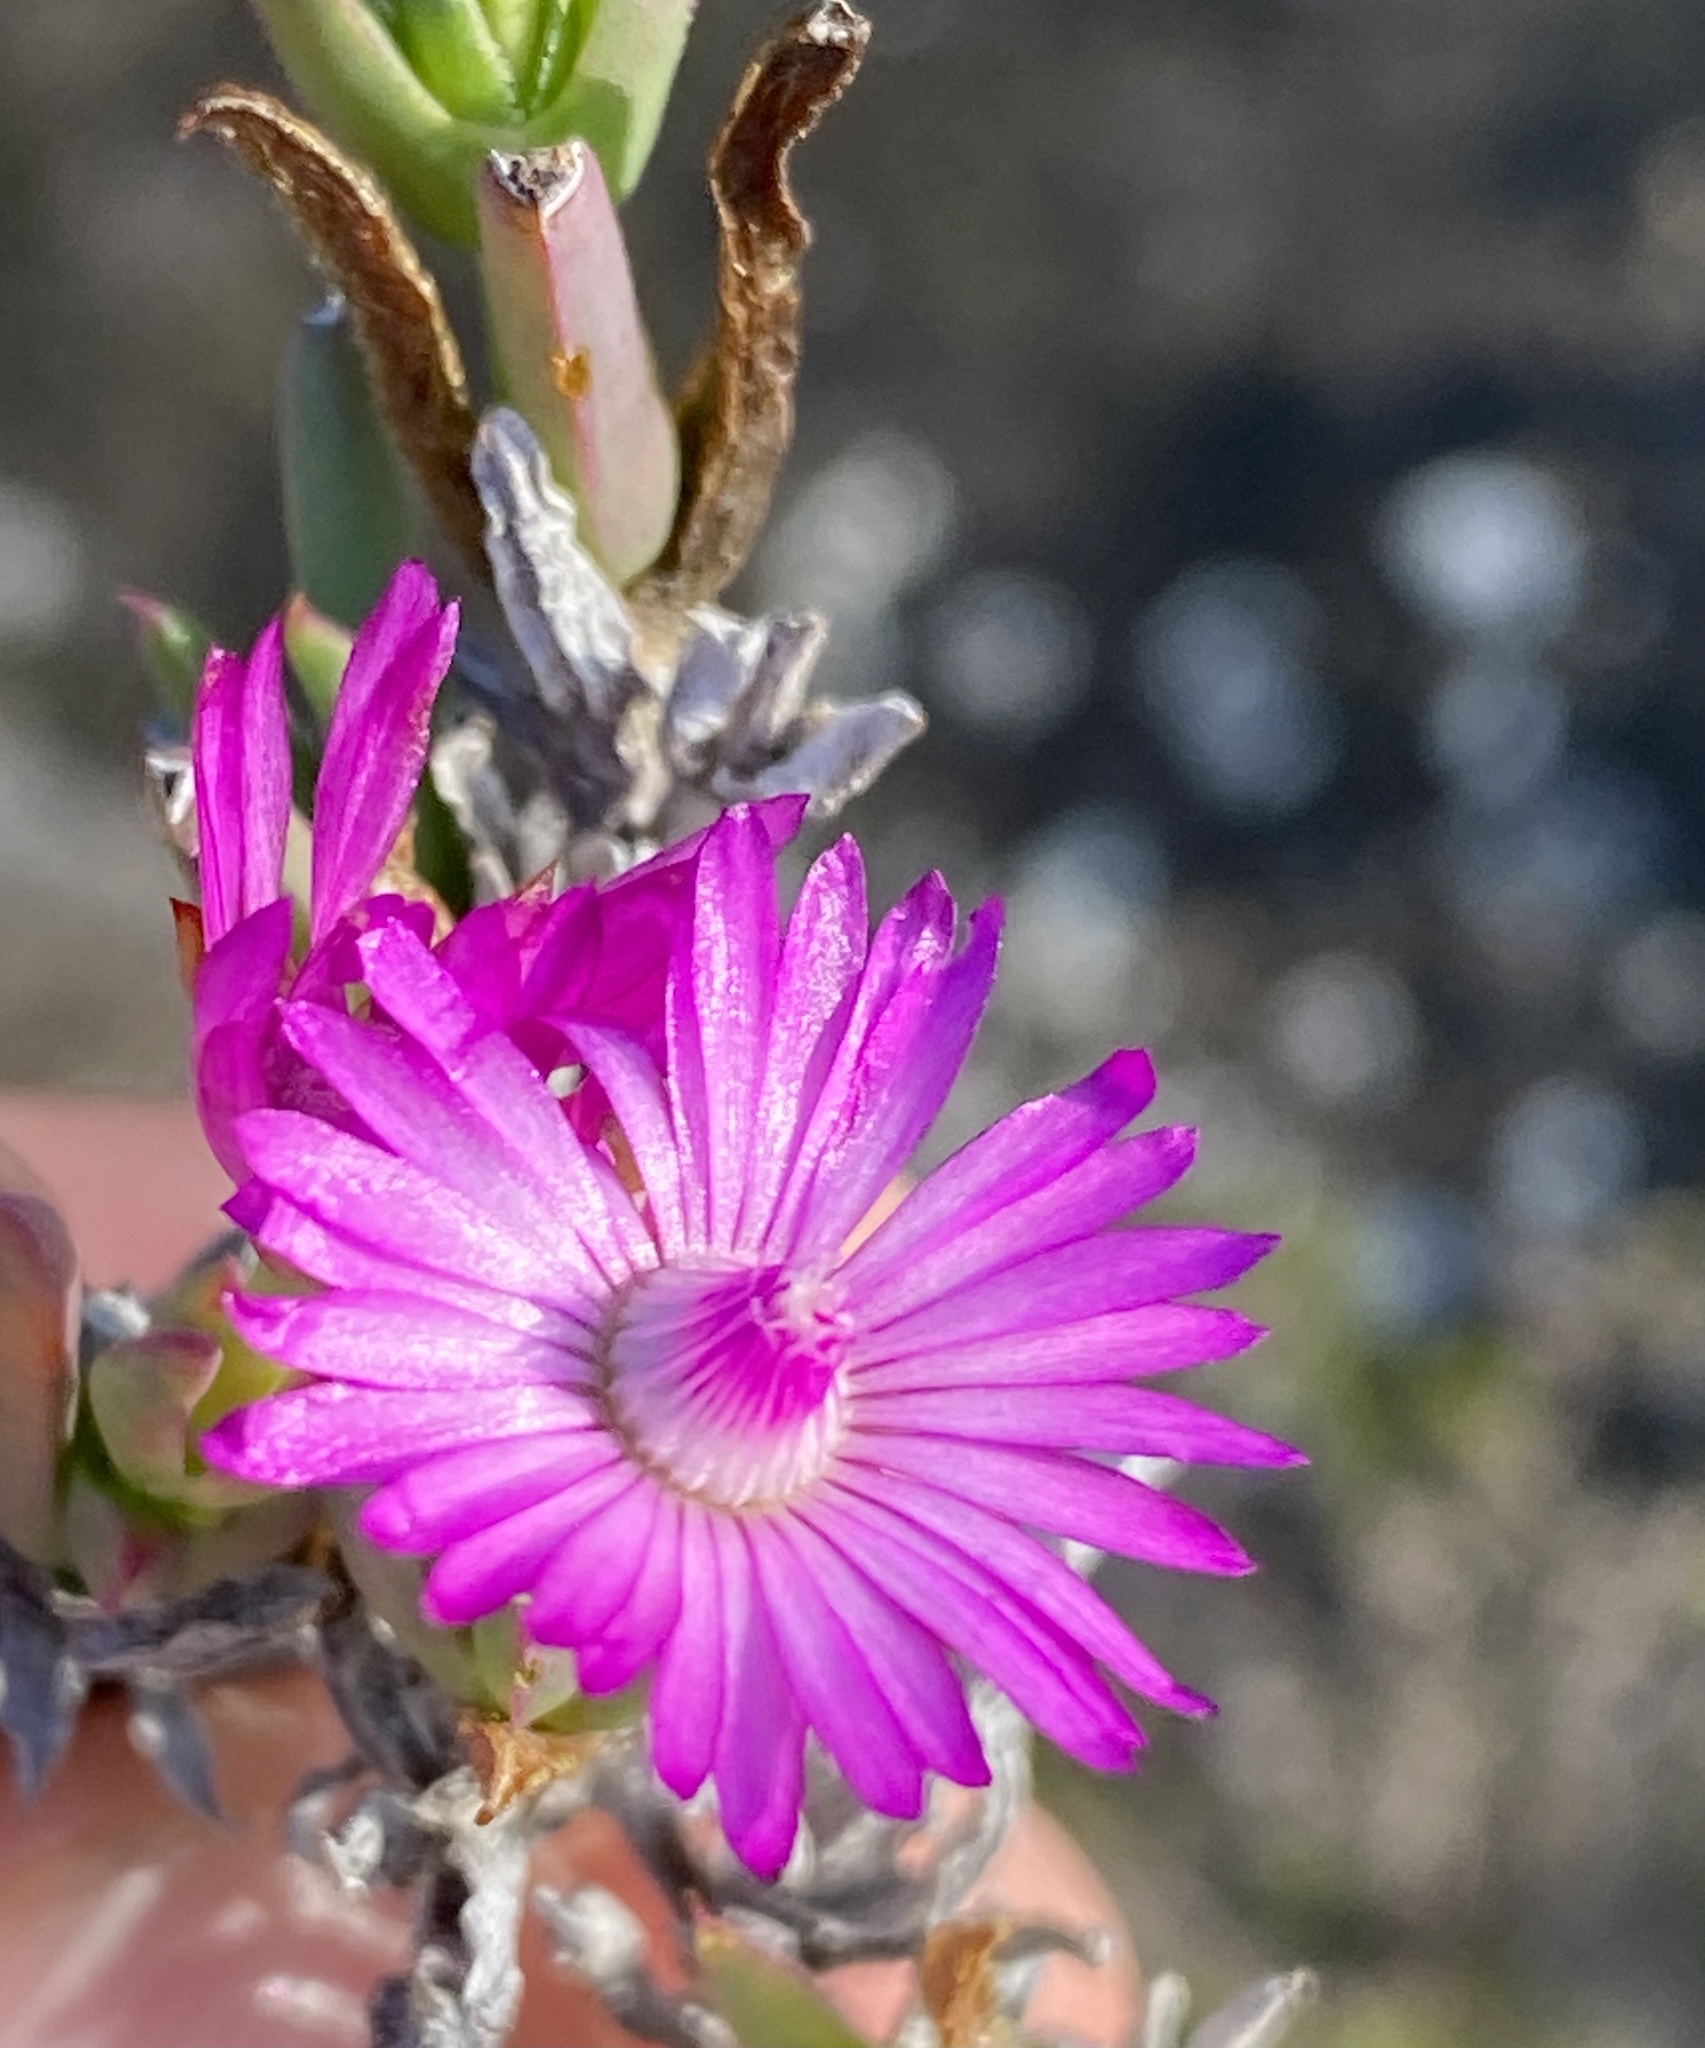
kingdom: Plantae
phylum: Tracheophyta
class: Magnoliopsida
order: Caryophyllales
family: Aizoaceae
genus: Ruschia
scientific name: Ruschia calcicola
